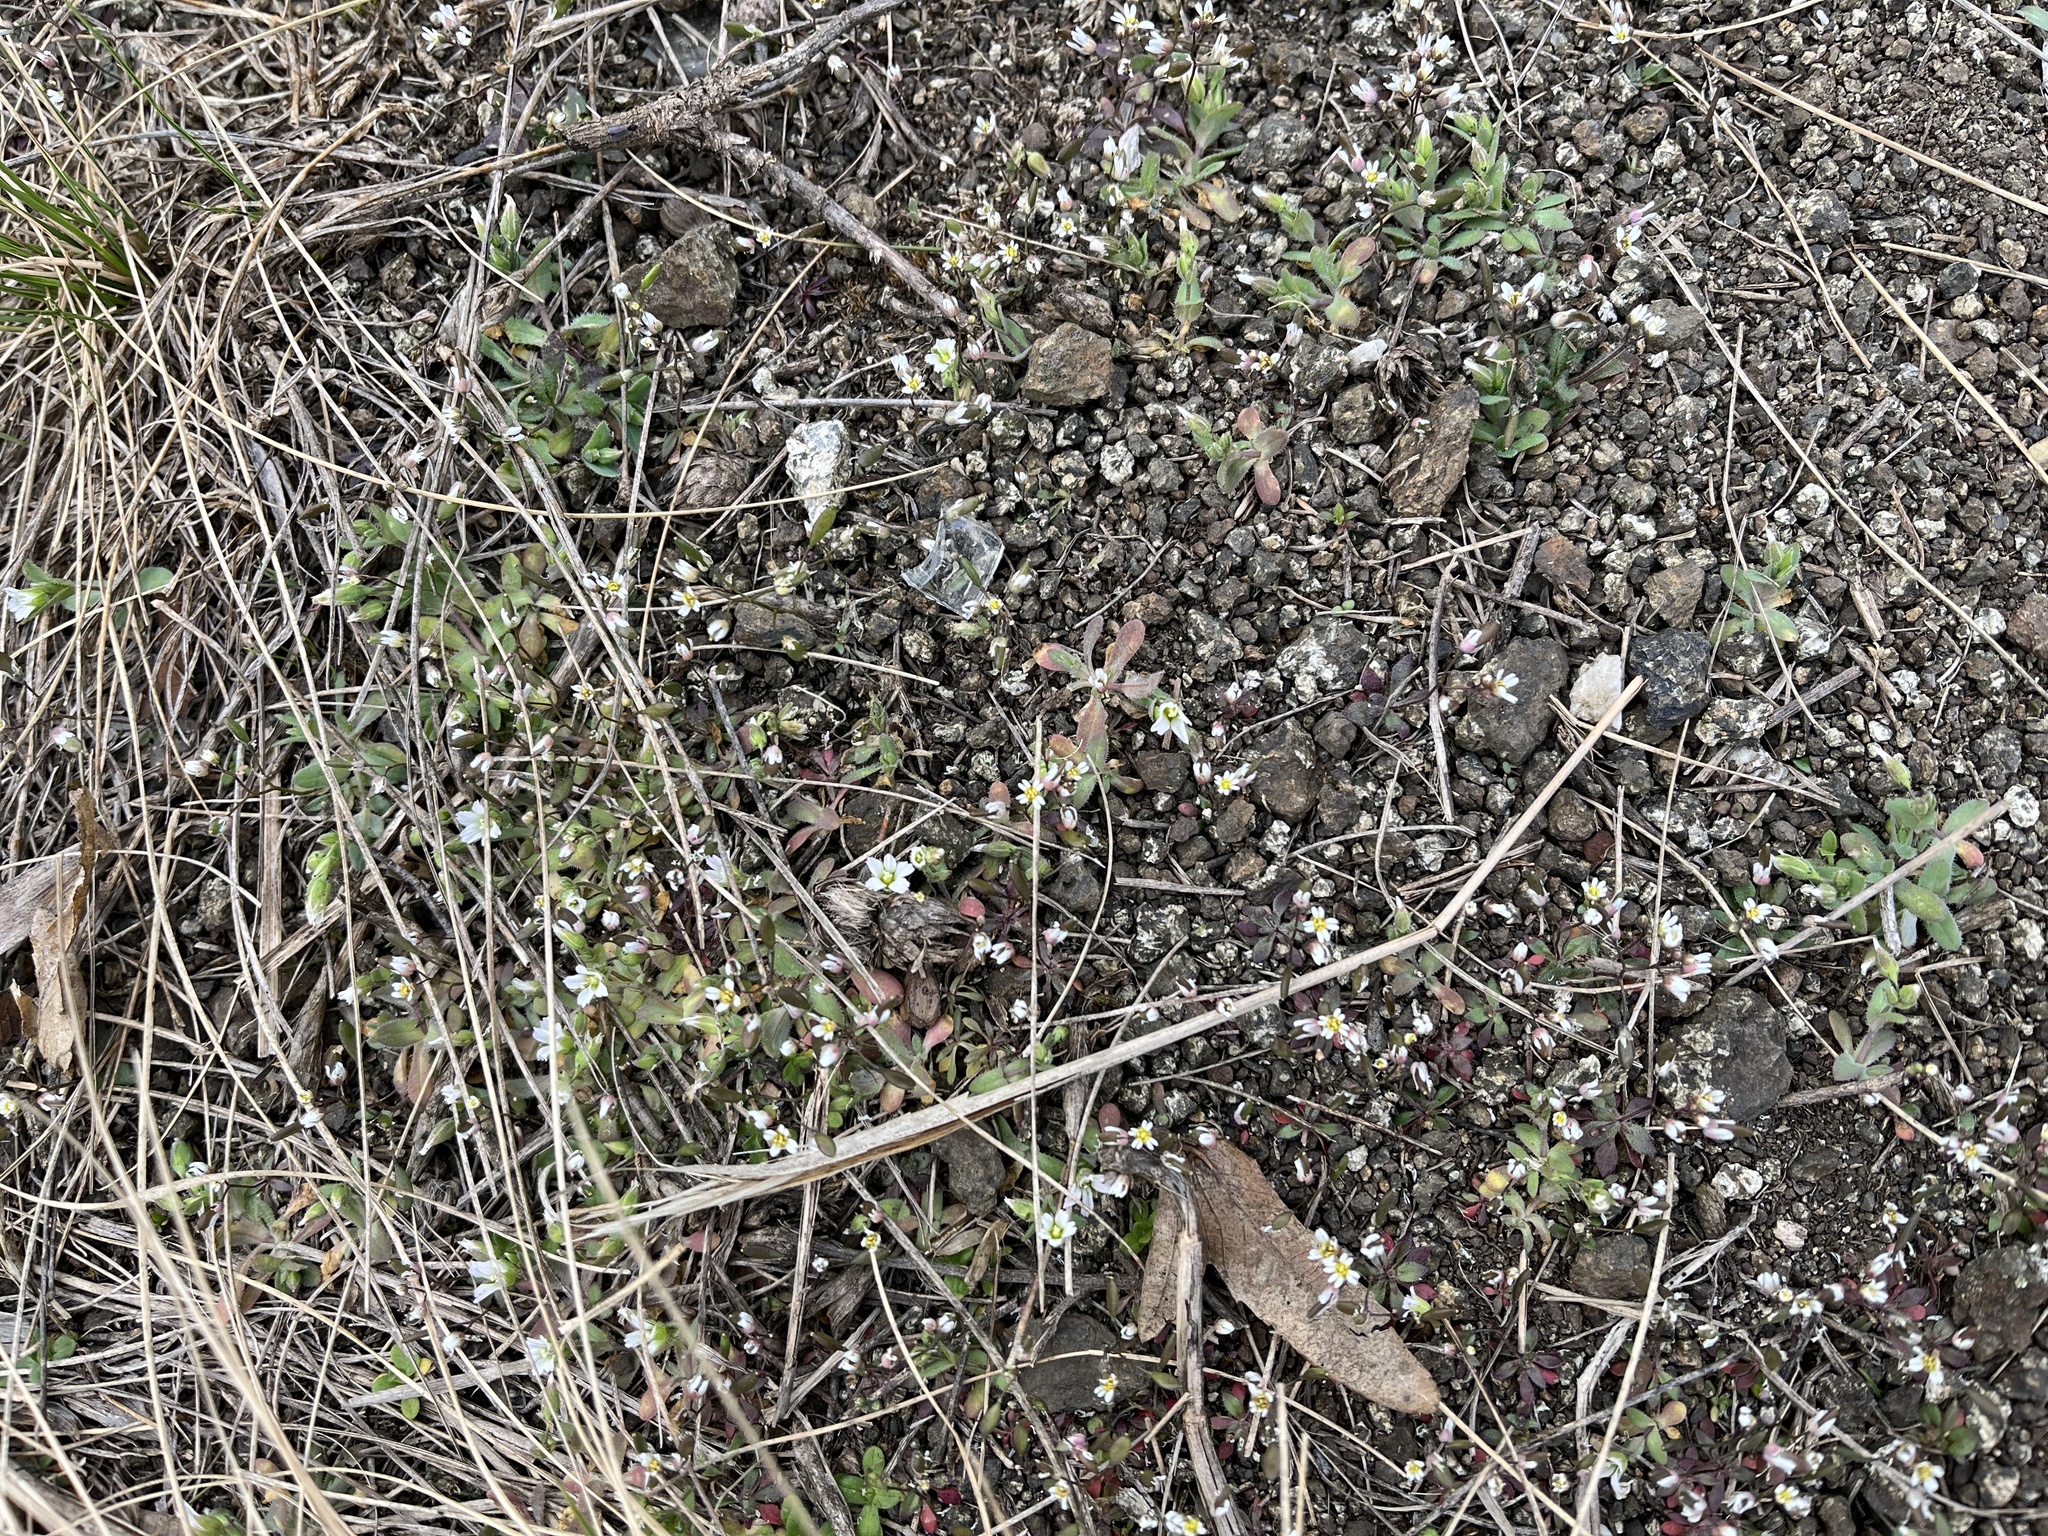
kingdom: Plantae
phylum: Tracheophyta
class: Magnoliopsida
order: Brassicales
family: Brassicaceae
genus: Draba
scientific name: Draba verna
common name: Spring draba
